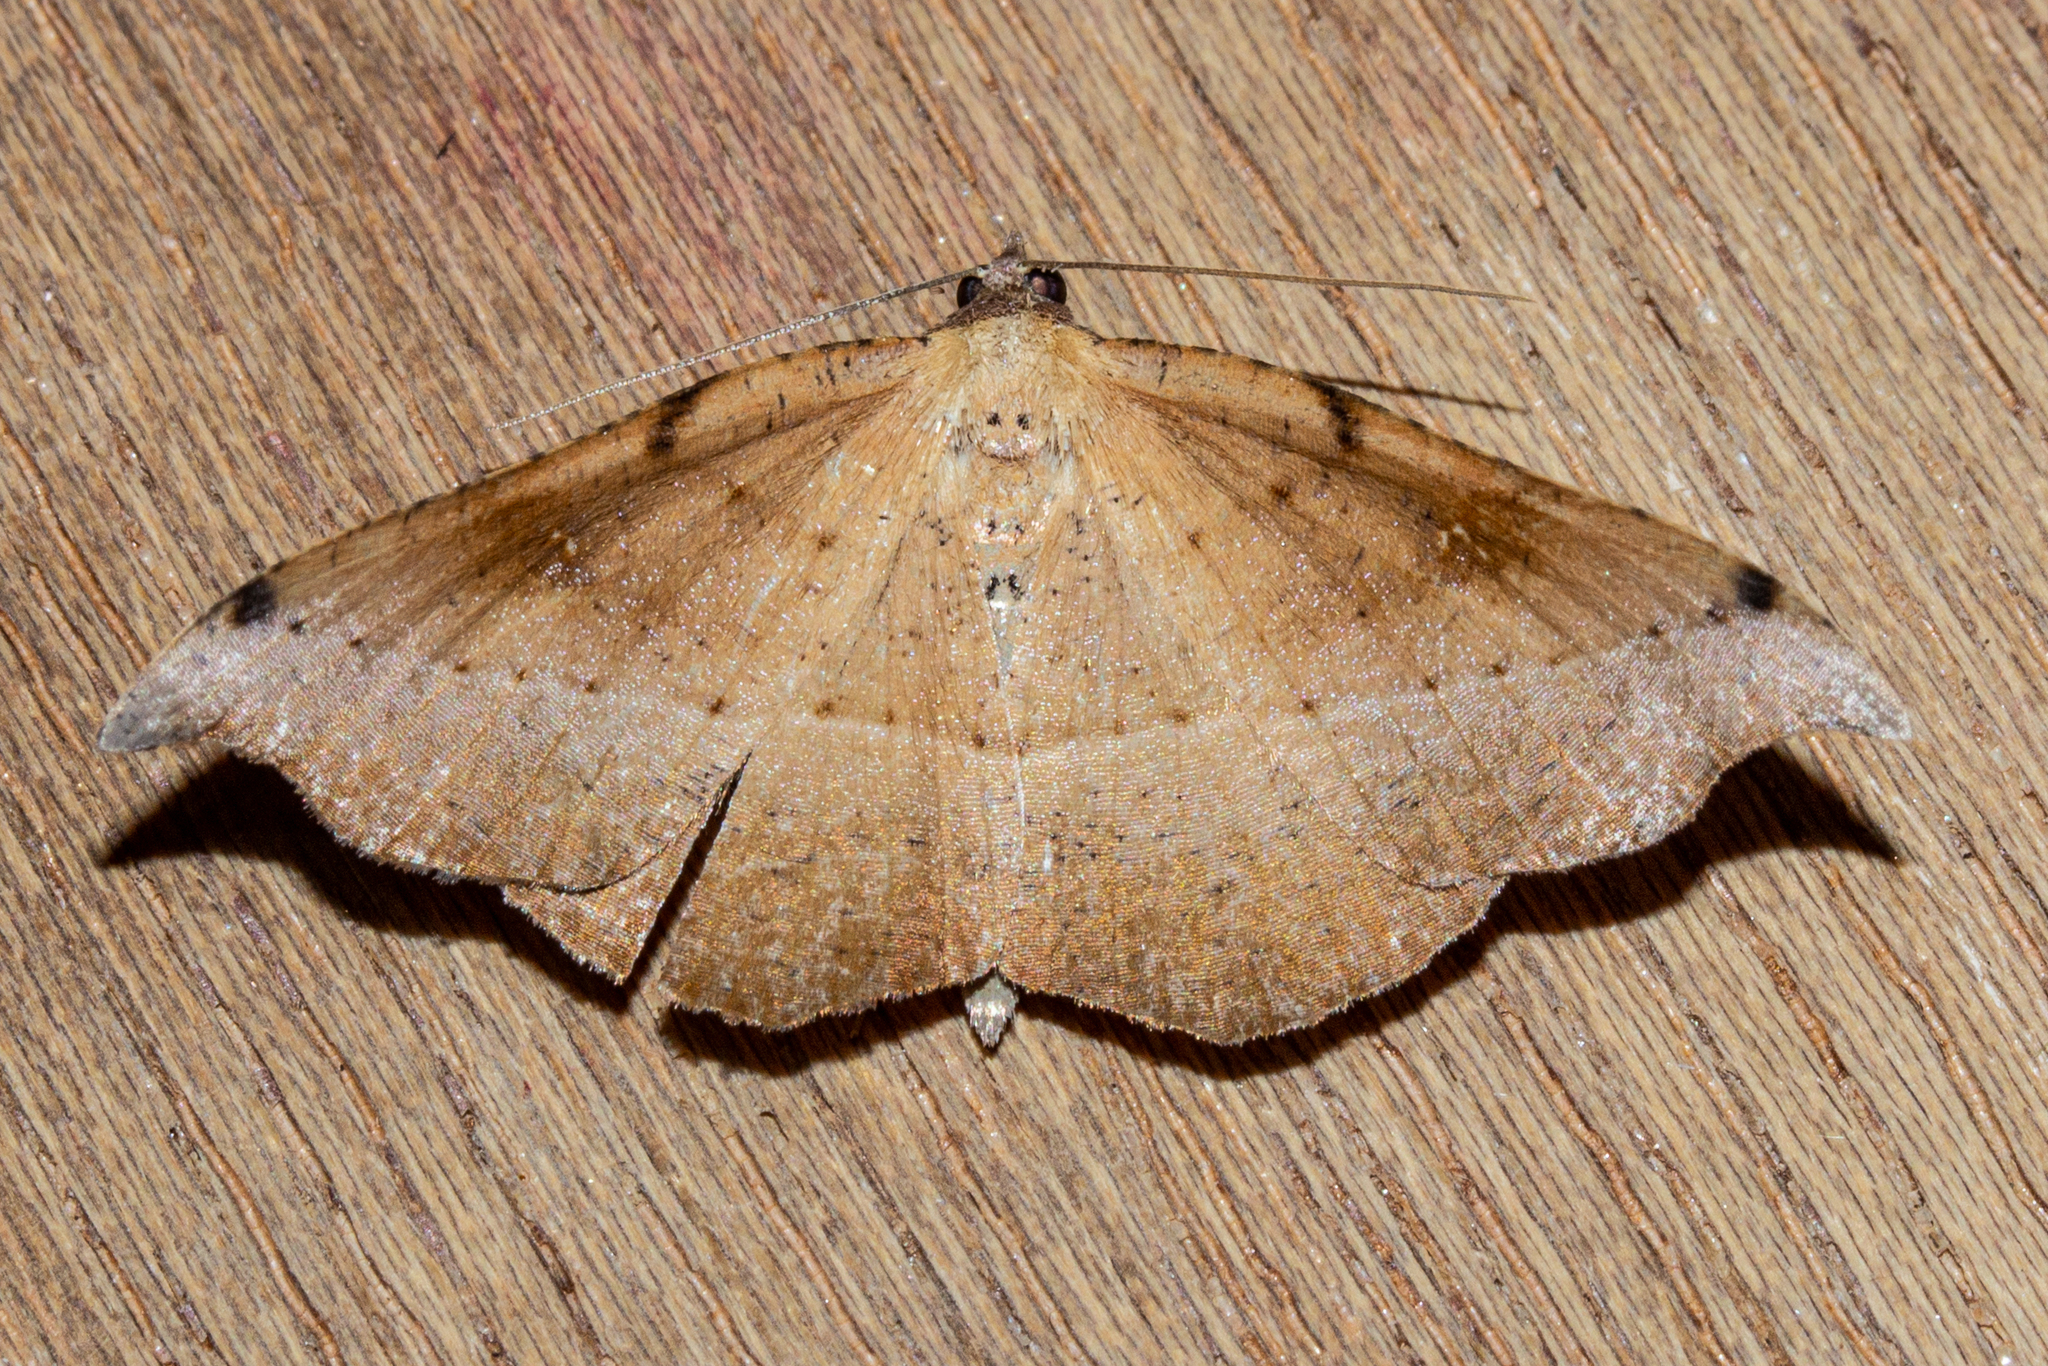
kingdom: Animalia
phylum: Arthropoda
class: Insecta
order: Lepidoptera
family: Geometridae
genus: Sarisa
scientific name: Sarisa muriferata
